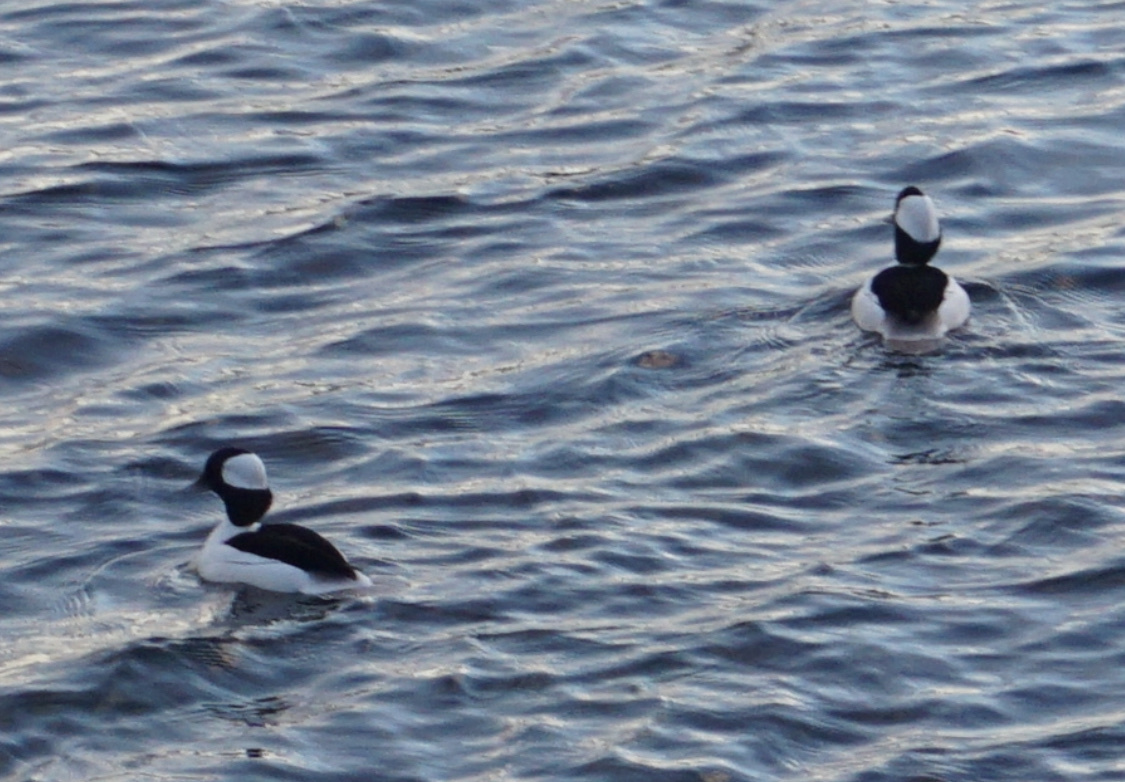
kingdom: Animalia
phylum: Chordata
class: Aves
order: Anseriformes
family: Anatidae
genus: Bucephala
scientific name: Bucephala albeola
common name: Bufflehead
